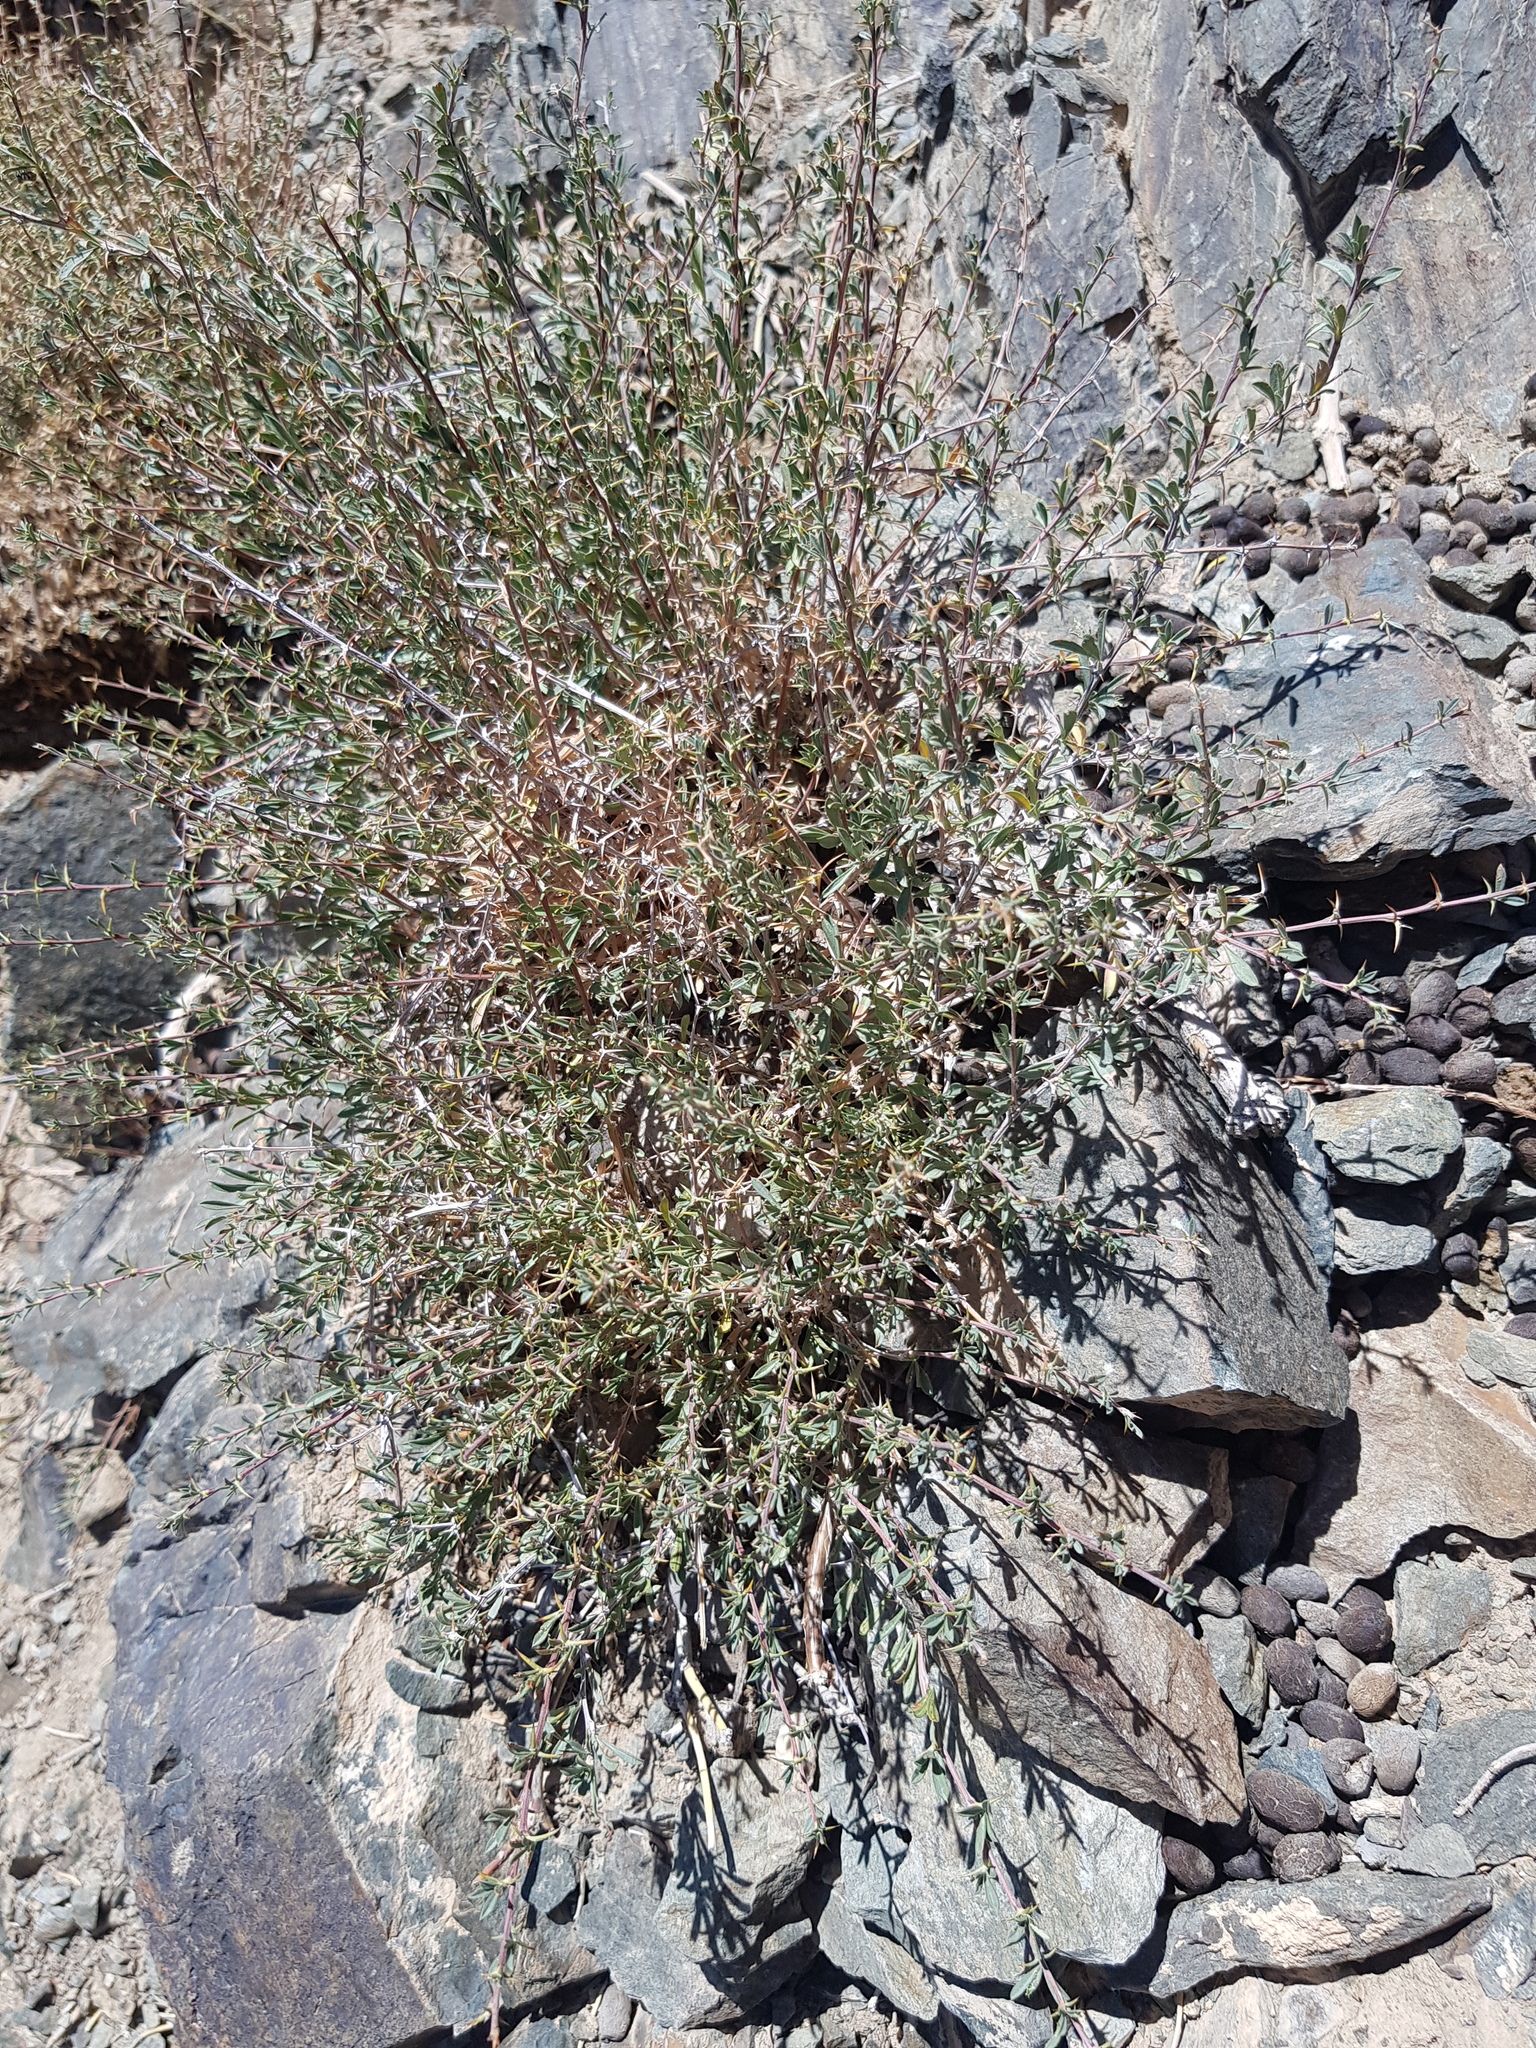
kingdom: Plantae
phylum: Tracheophyta
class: Magnoliopsida
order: Caryophyllales
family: Amaranthaceae
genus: Krascheninnikovia
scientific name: Krascheninnikovia ceratoides
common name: Pamirian winterfat
